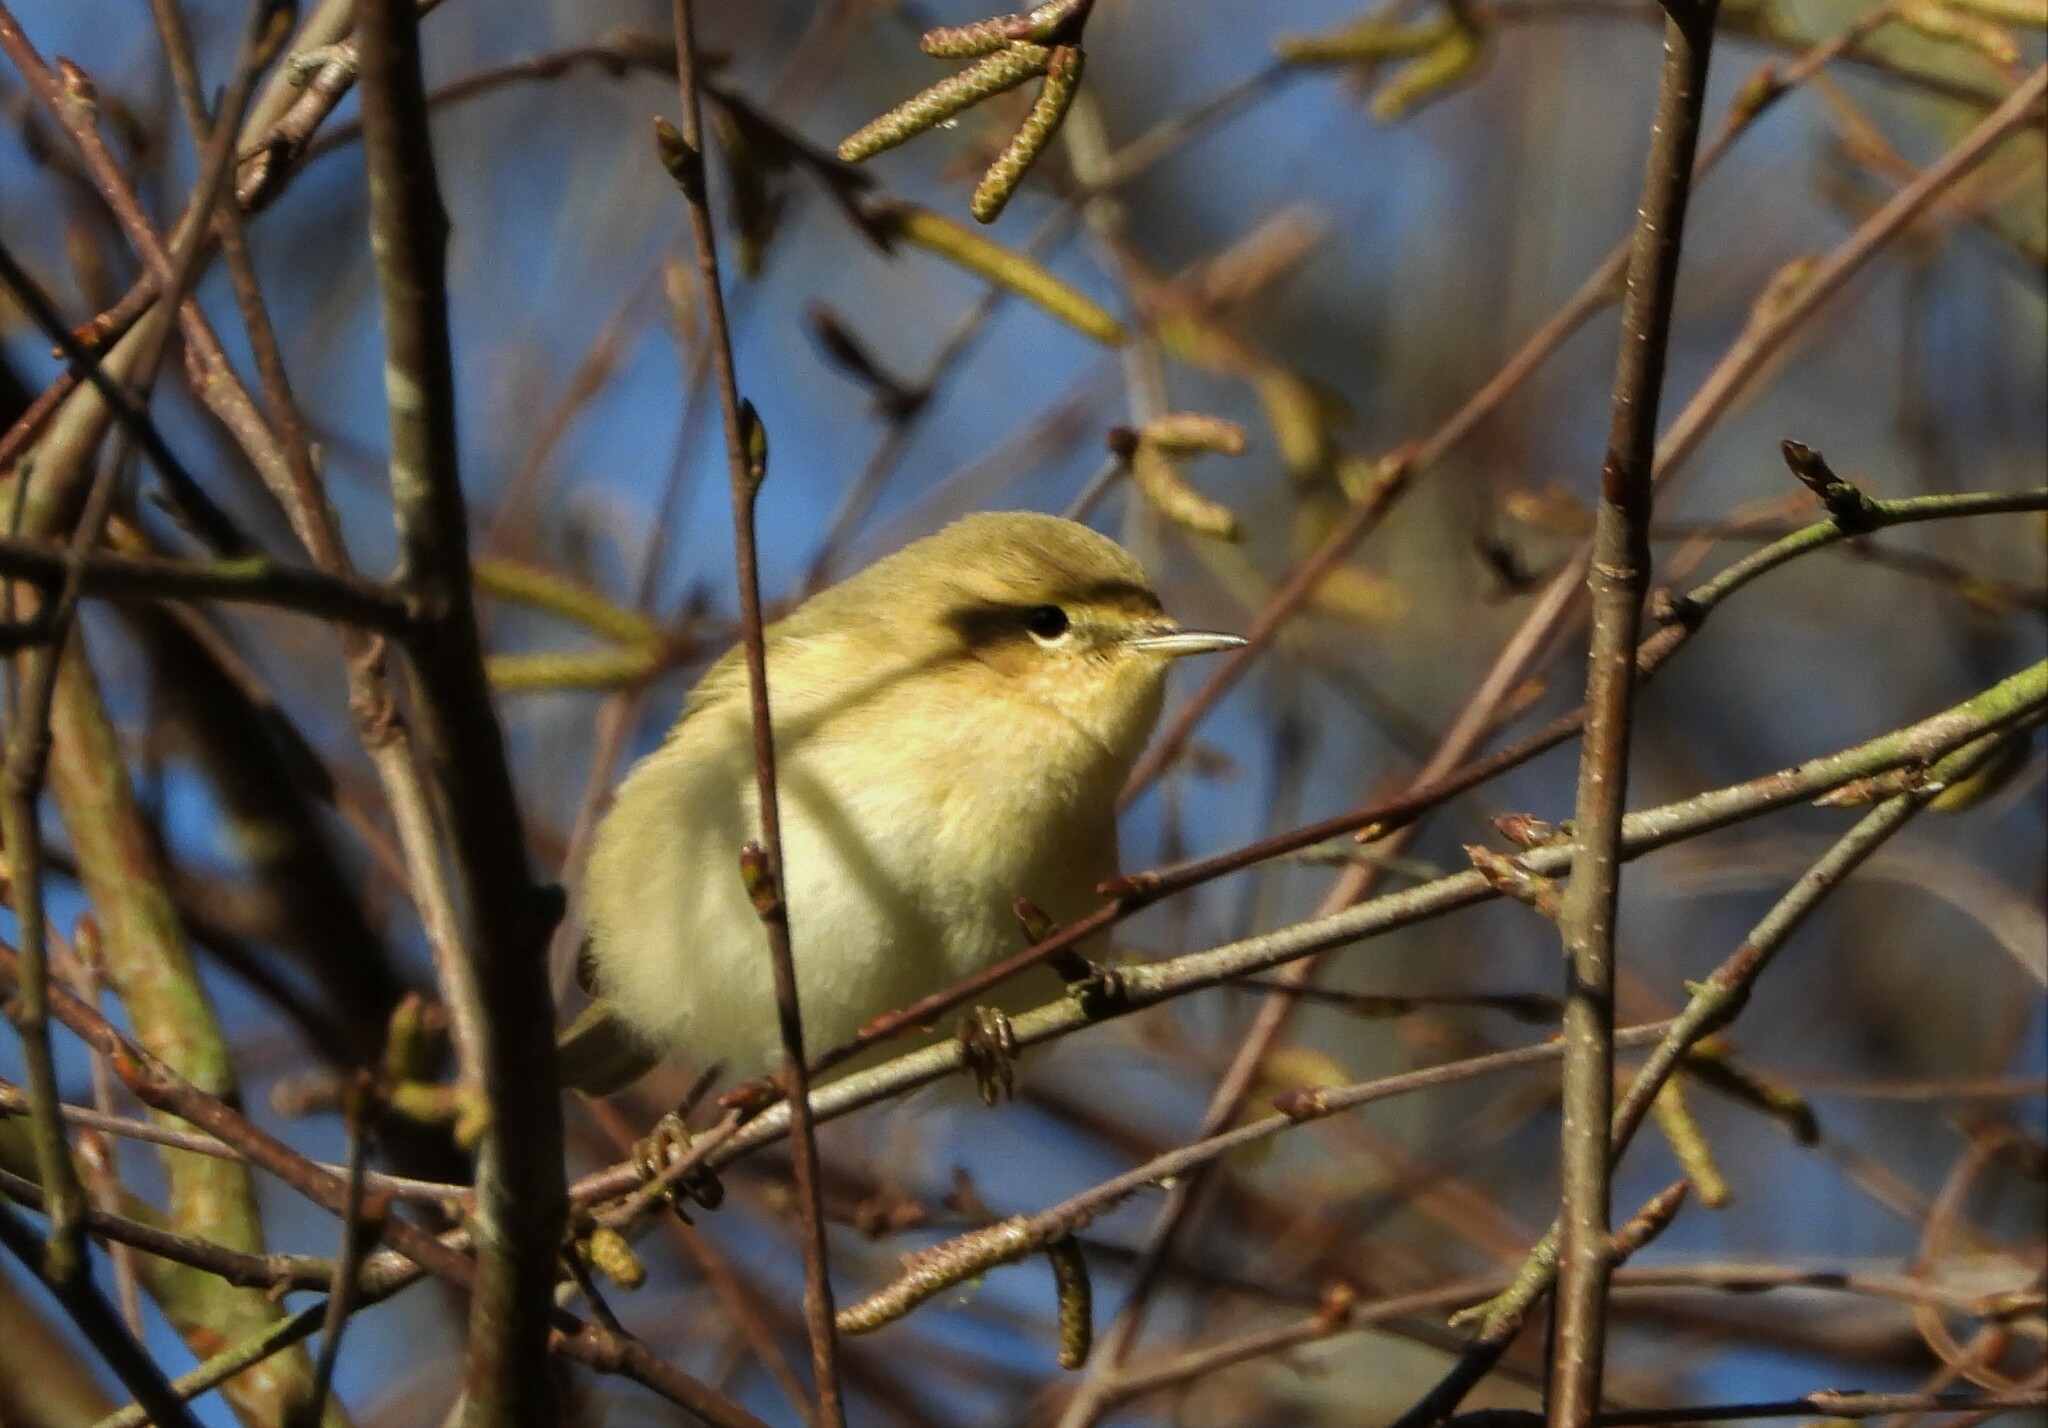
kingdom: Animalia
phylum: Chordata
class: Aves
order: Passeriformes
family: Phylloscopidae
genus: Phylloscopus
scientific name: Phylloscopus collybita
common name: Common chiffchaff
